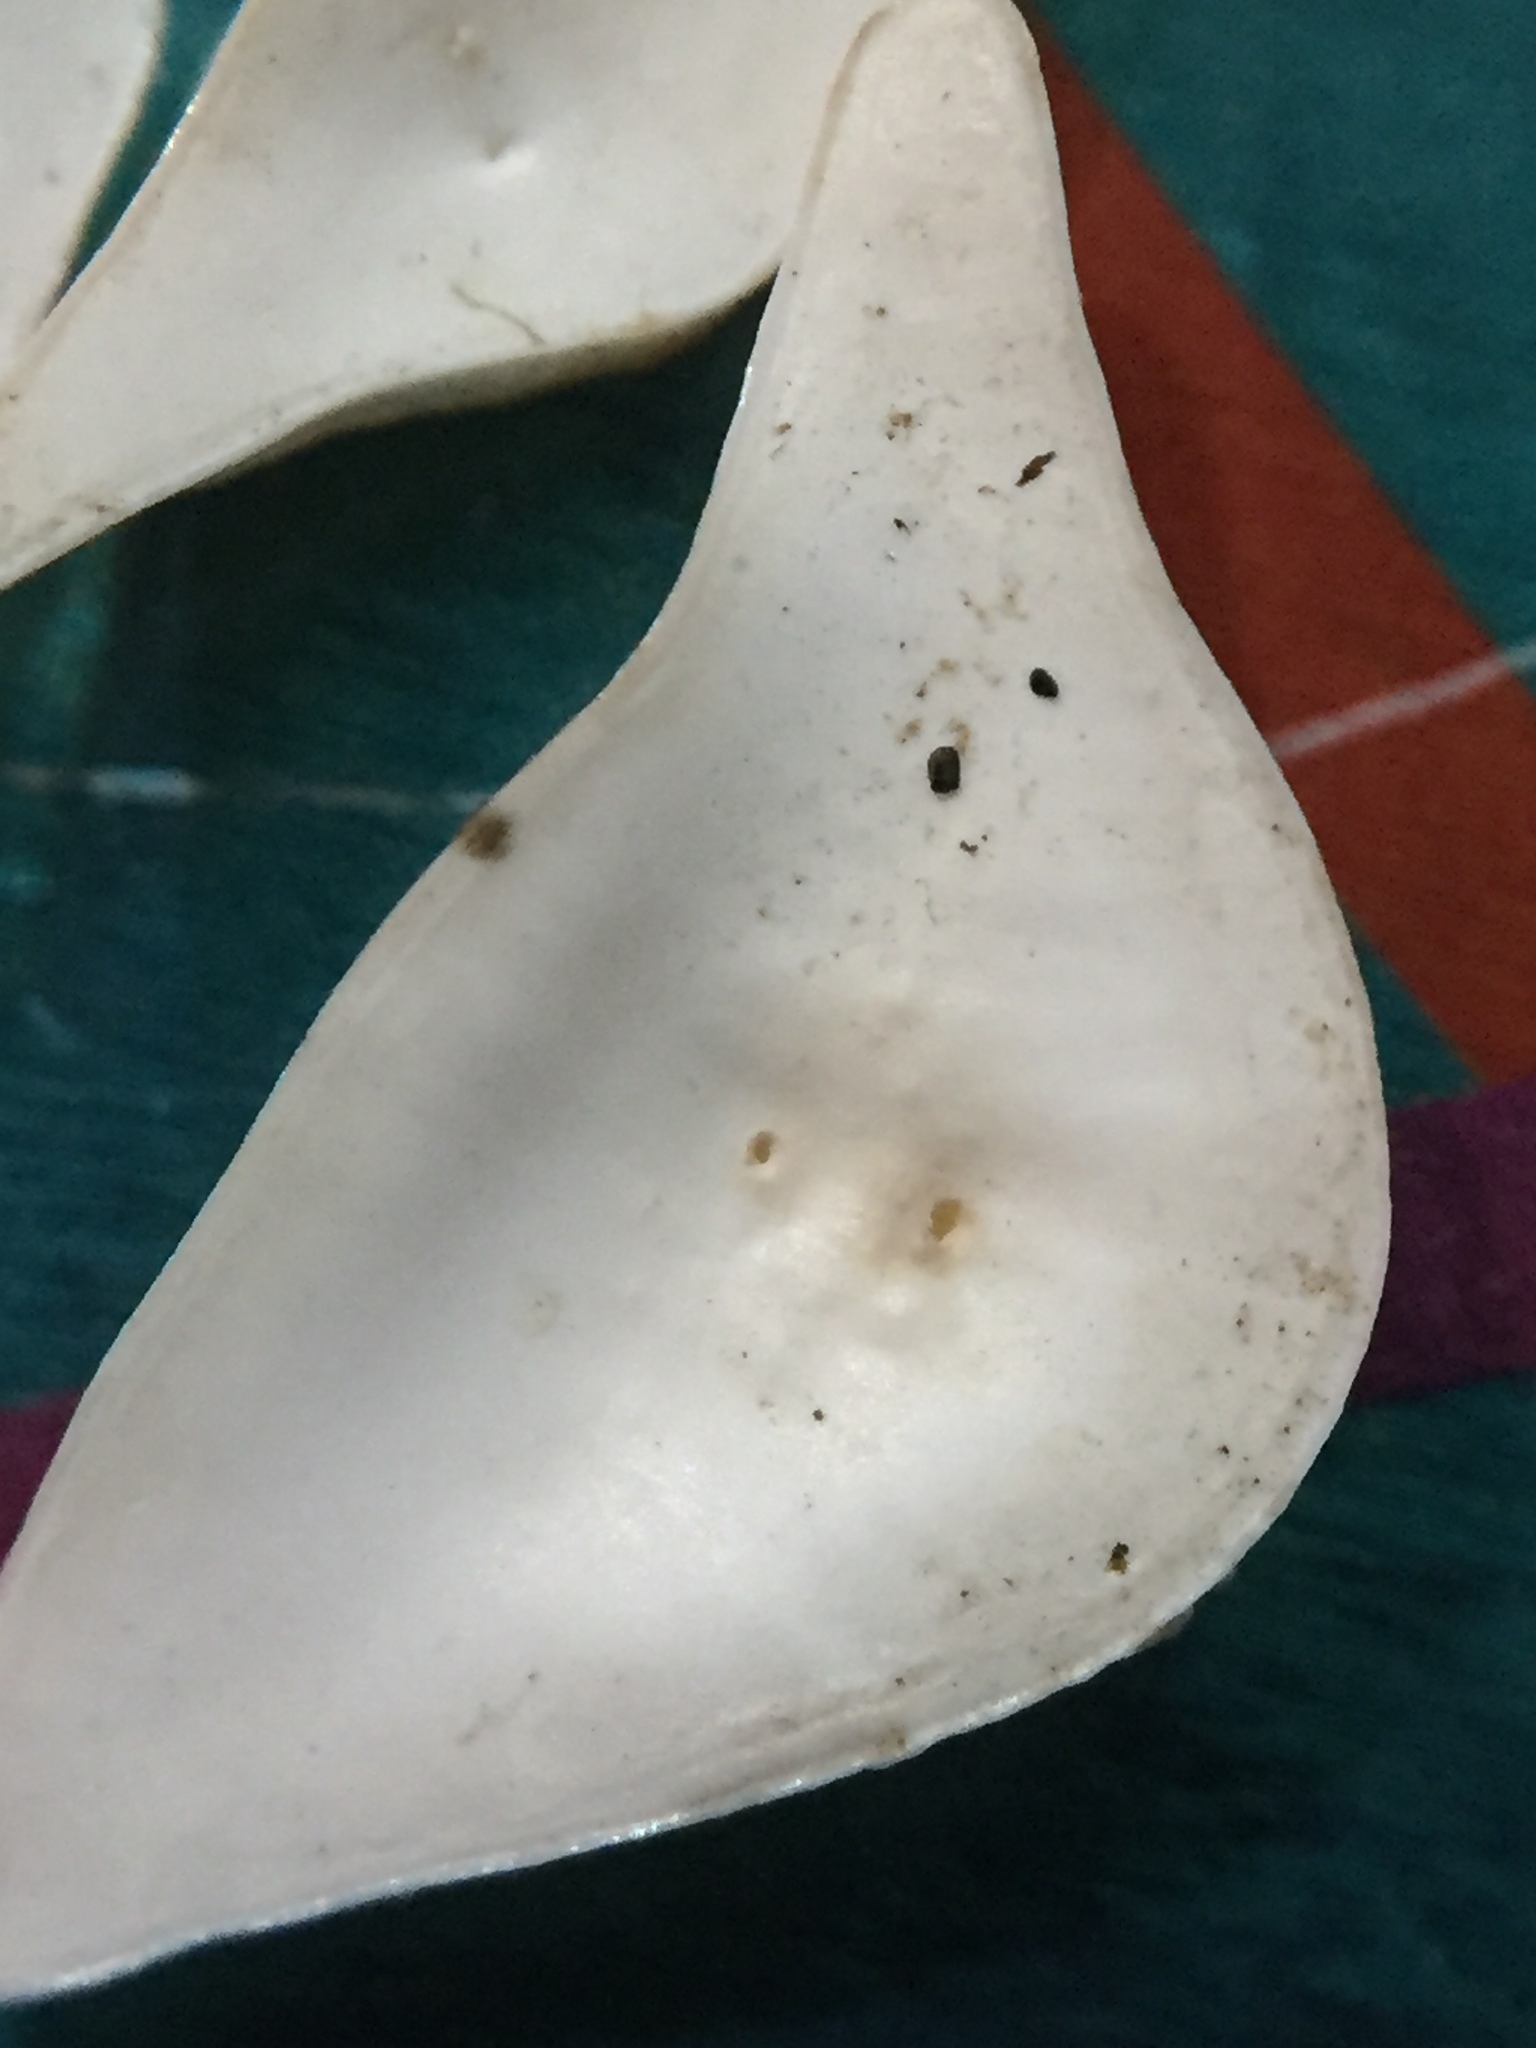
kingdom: Animalia
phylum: Mollusca
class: Gastropoda
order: Cephalaspidea
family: Philinidae
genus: Philine
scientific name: Philine angasi
